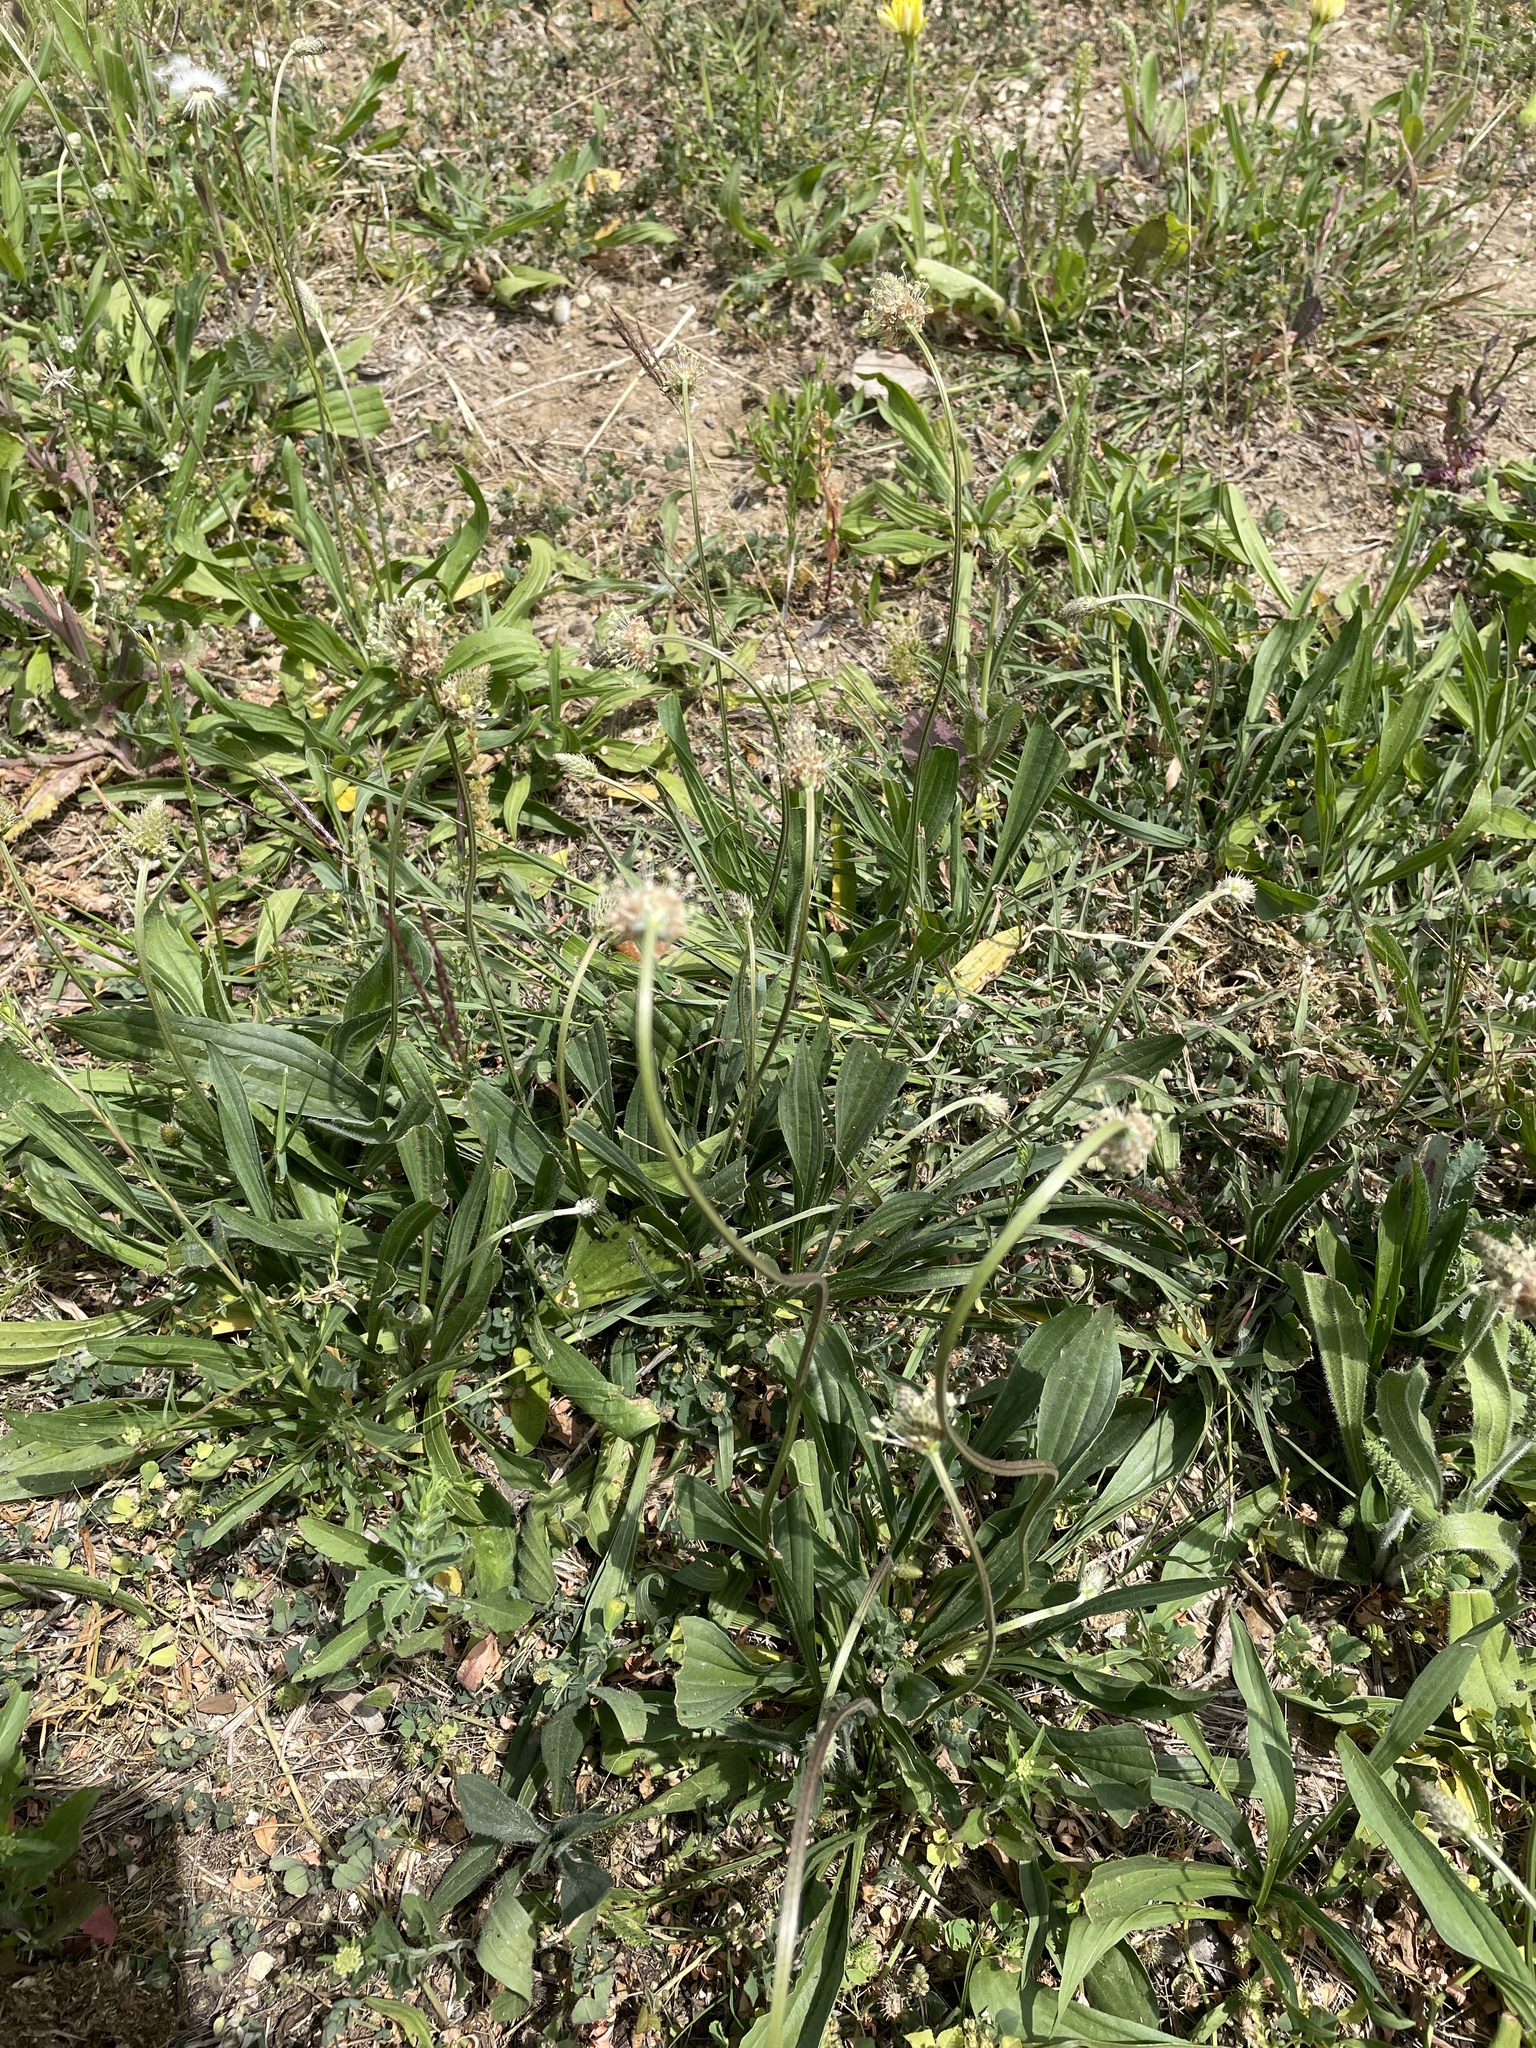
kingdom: Plantae
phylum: Tracheophyta
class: Magnoliopsida
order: Lamiales
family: Plantaginaceae
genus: Plantago
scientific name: Plantago lanceolata
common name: Ribwort plantain
